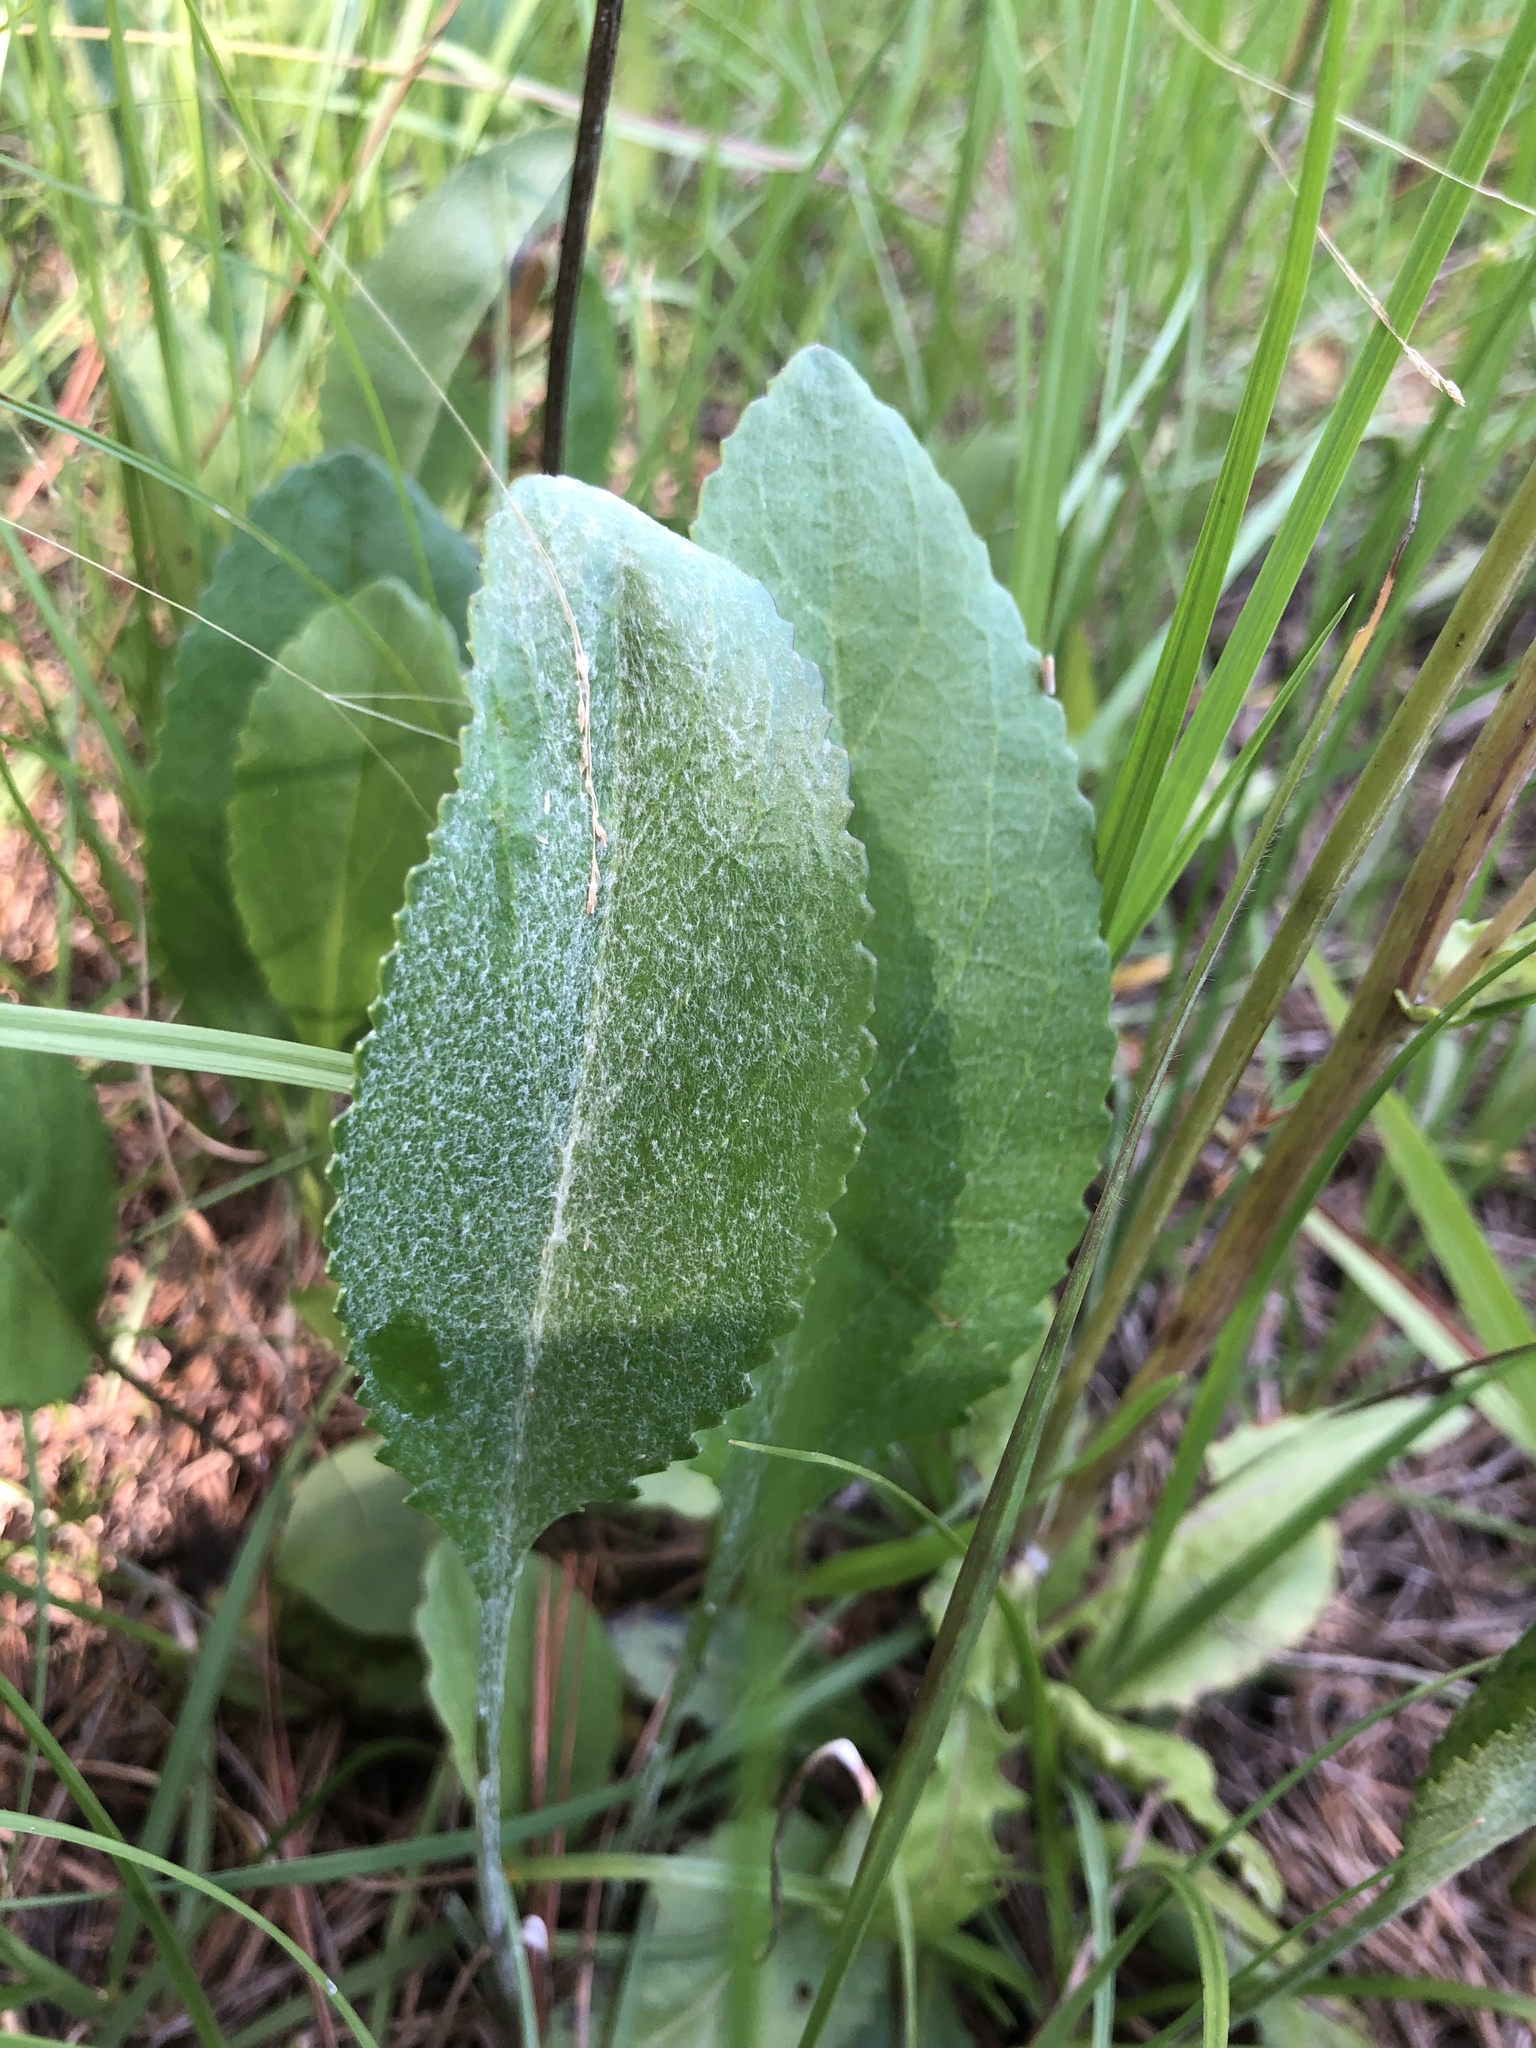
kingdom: Plantae
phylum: Tracheophyta
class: Magnoliopsida
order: Asterales
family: Asteraceae
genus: Packera
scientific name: Packera dubia
